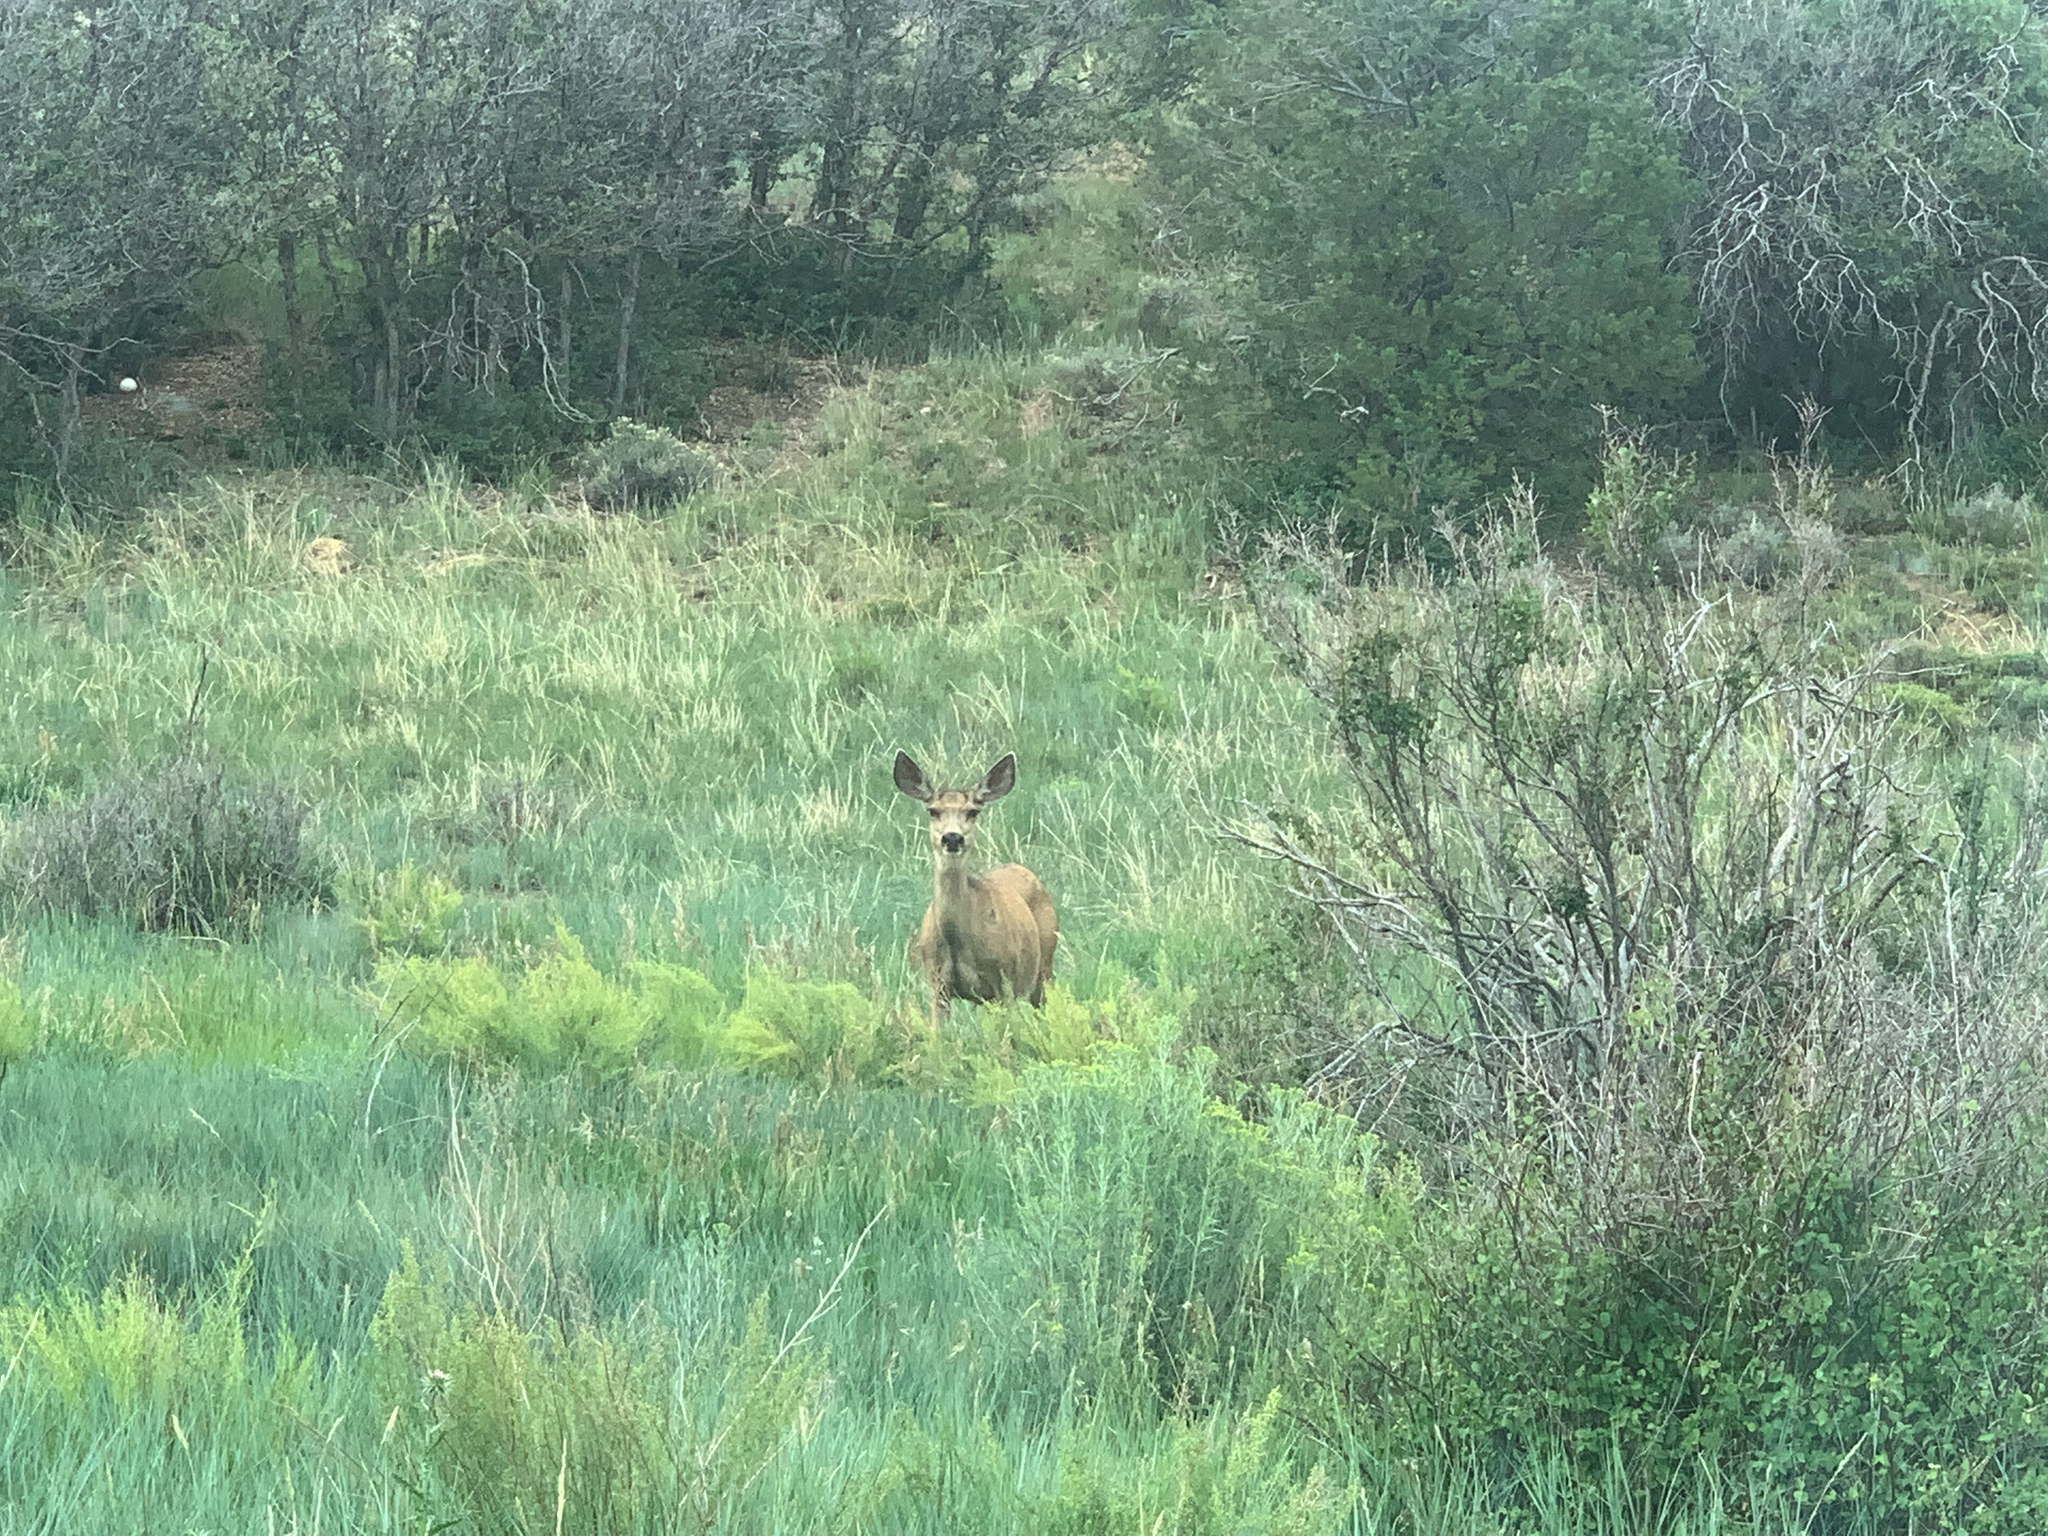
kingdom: Animalia
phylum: Chordata
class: Mammalia
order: Artiodactyla
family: Cervidae
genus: Odocoileus
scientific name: Odocoileus hemionus
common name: Mule deer
